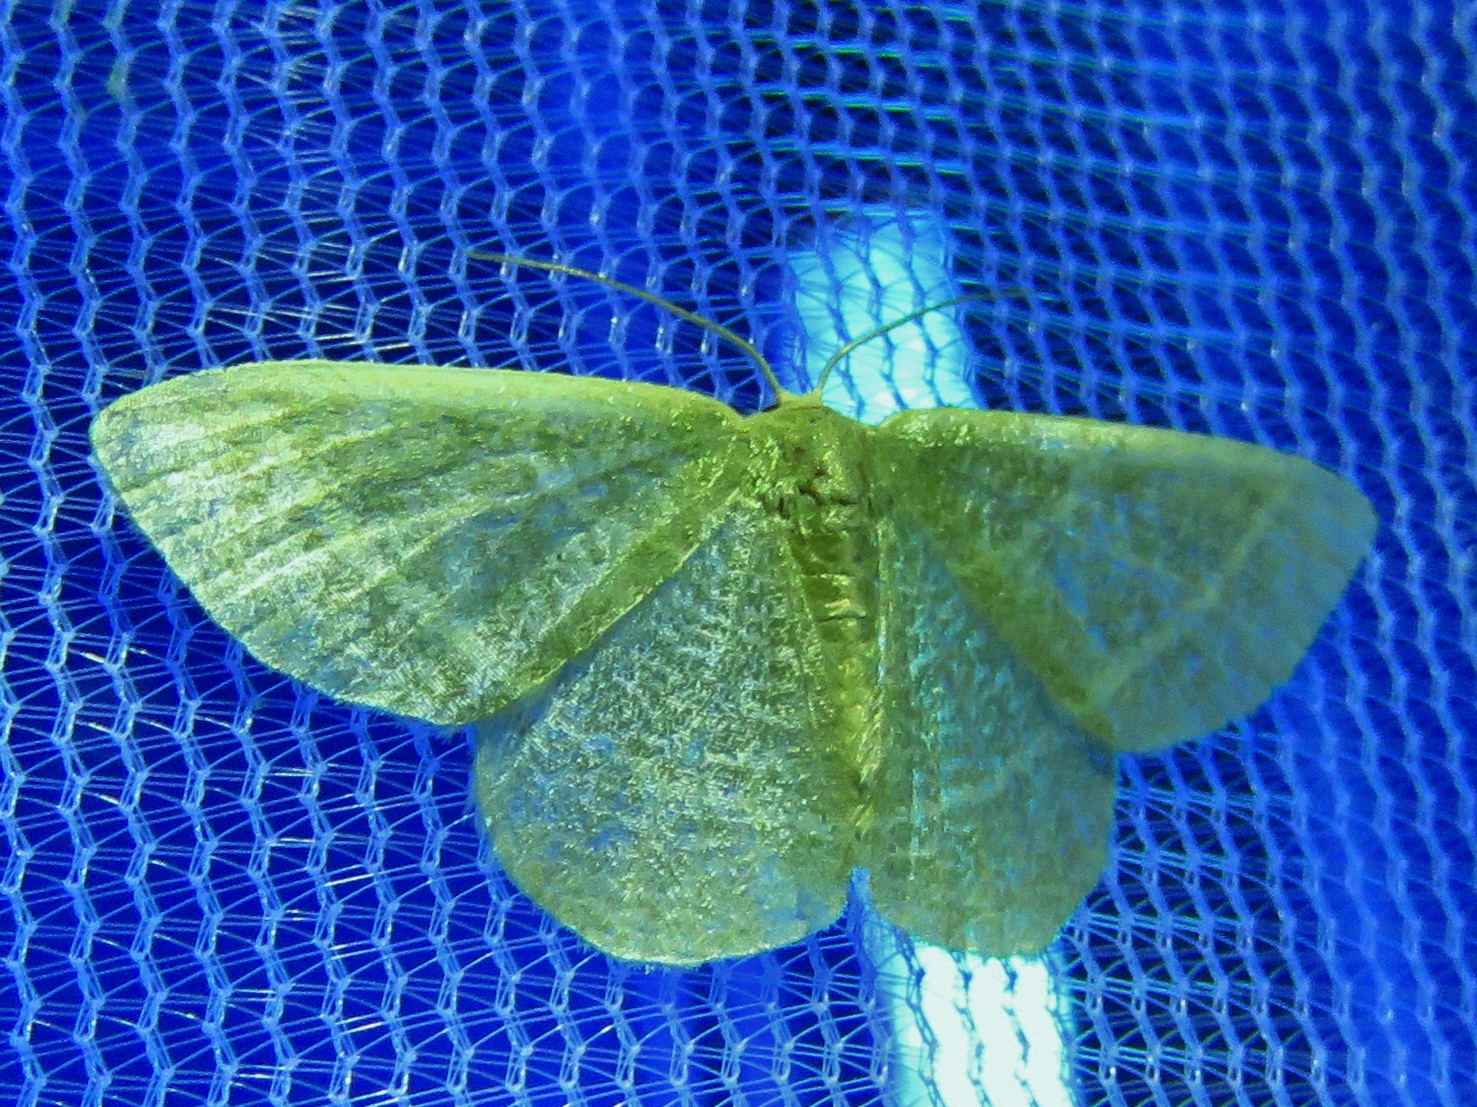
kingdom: Animalia
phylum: Arthropoda
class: Insecta
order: Lepidoptera
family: Geometridae
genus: Chlorochlamys
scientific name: Chlorochlamys phyllinaria
